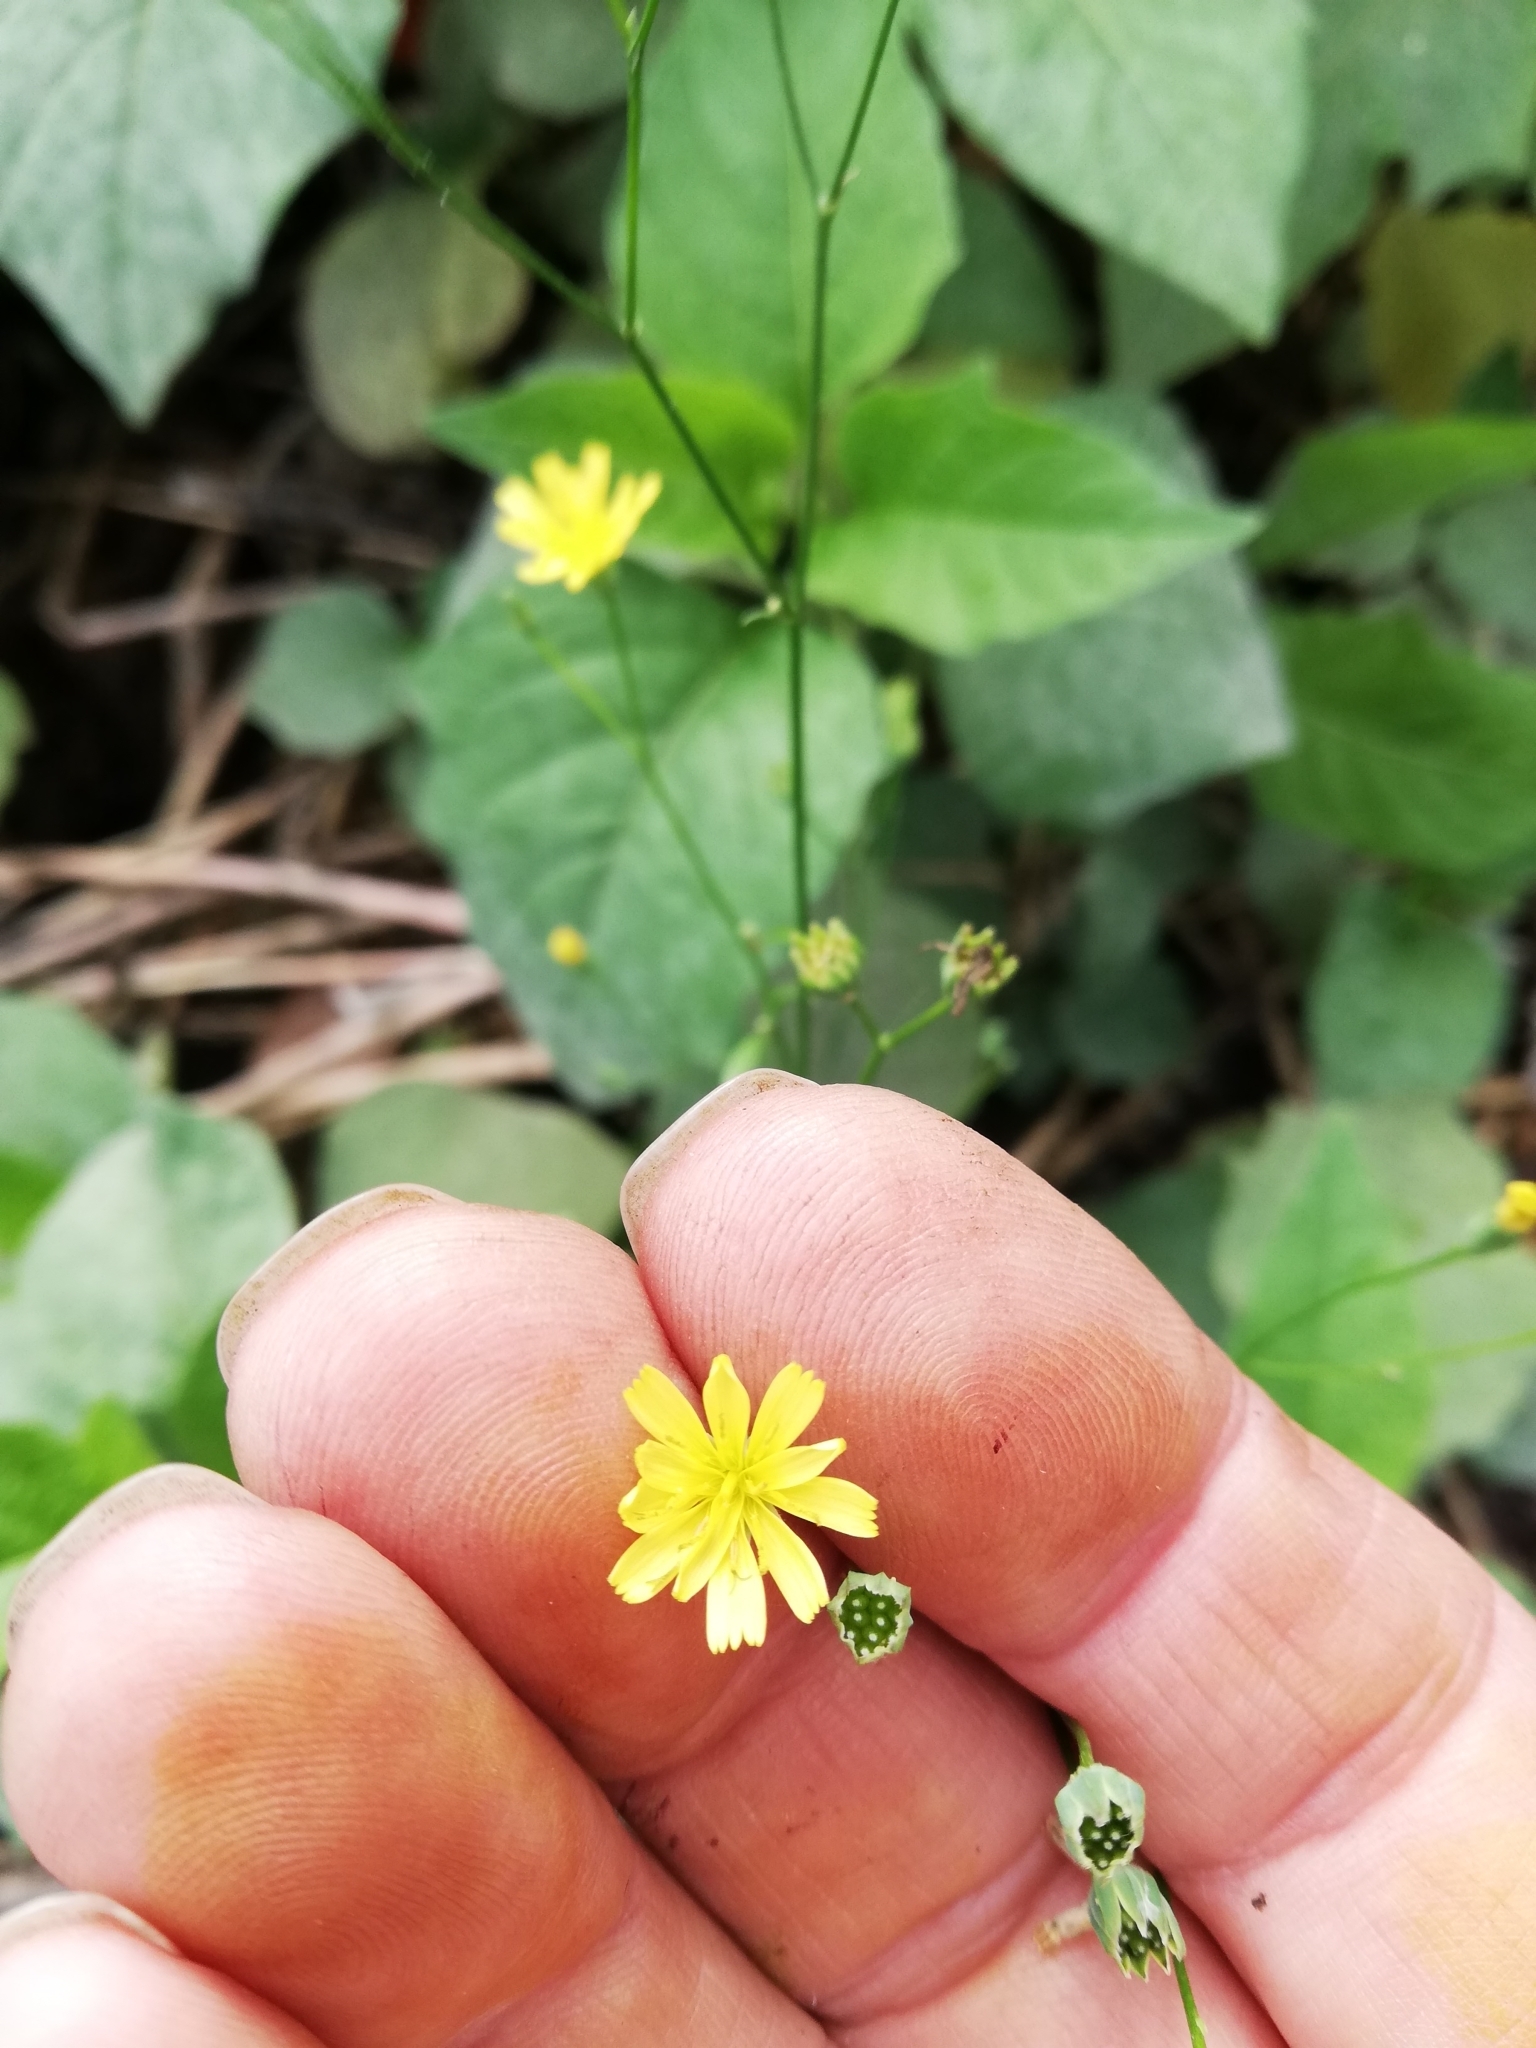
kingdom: Plantae
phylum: Tracheophyta
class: Magnoliopsida
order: Asterales
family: Asteraceae
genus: Lapsana
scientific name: Lapsana communis
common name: Nipplewort
